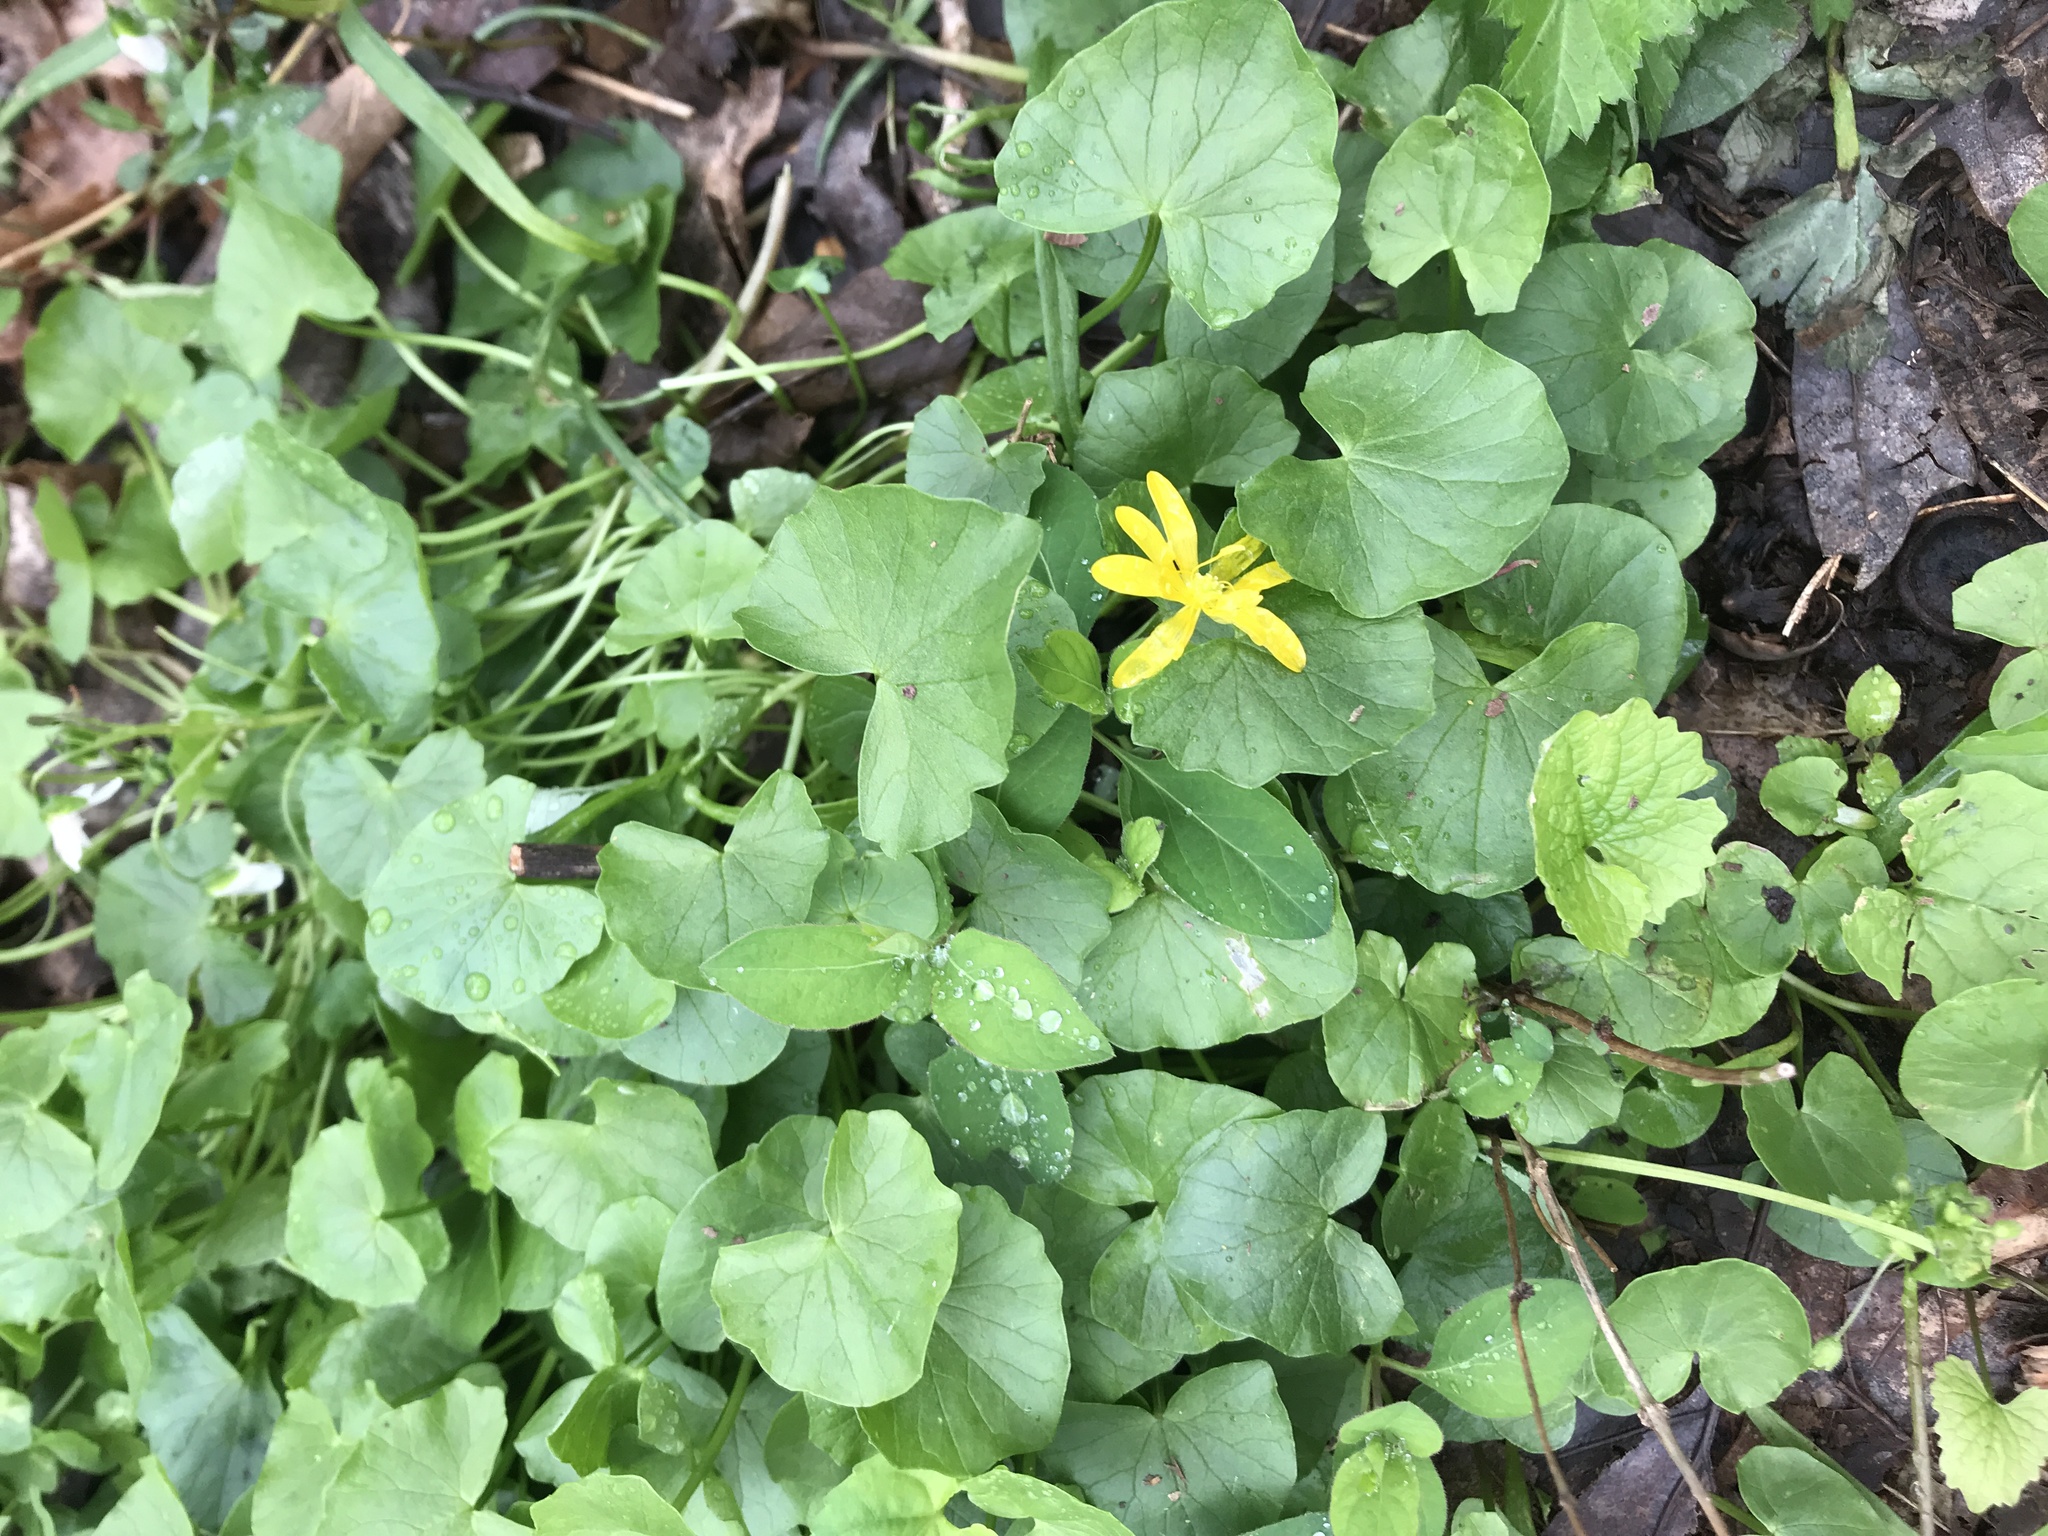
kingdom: Plantae
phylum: Tracheophyta
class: Magnoliopsida
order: Ranunculales
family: Ranunculaceae
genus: Ficaria
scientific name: Ficaria verna
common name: Lesser celandine
